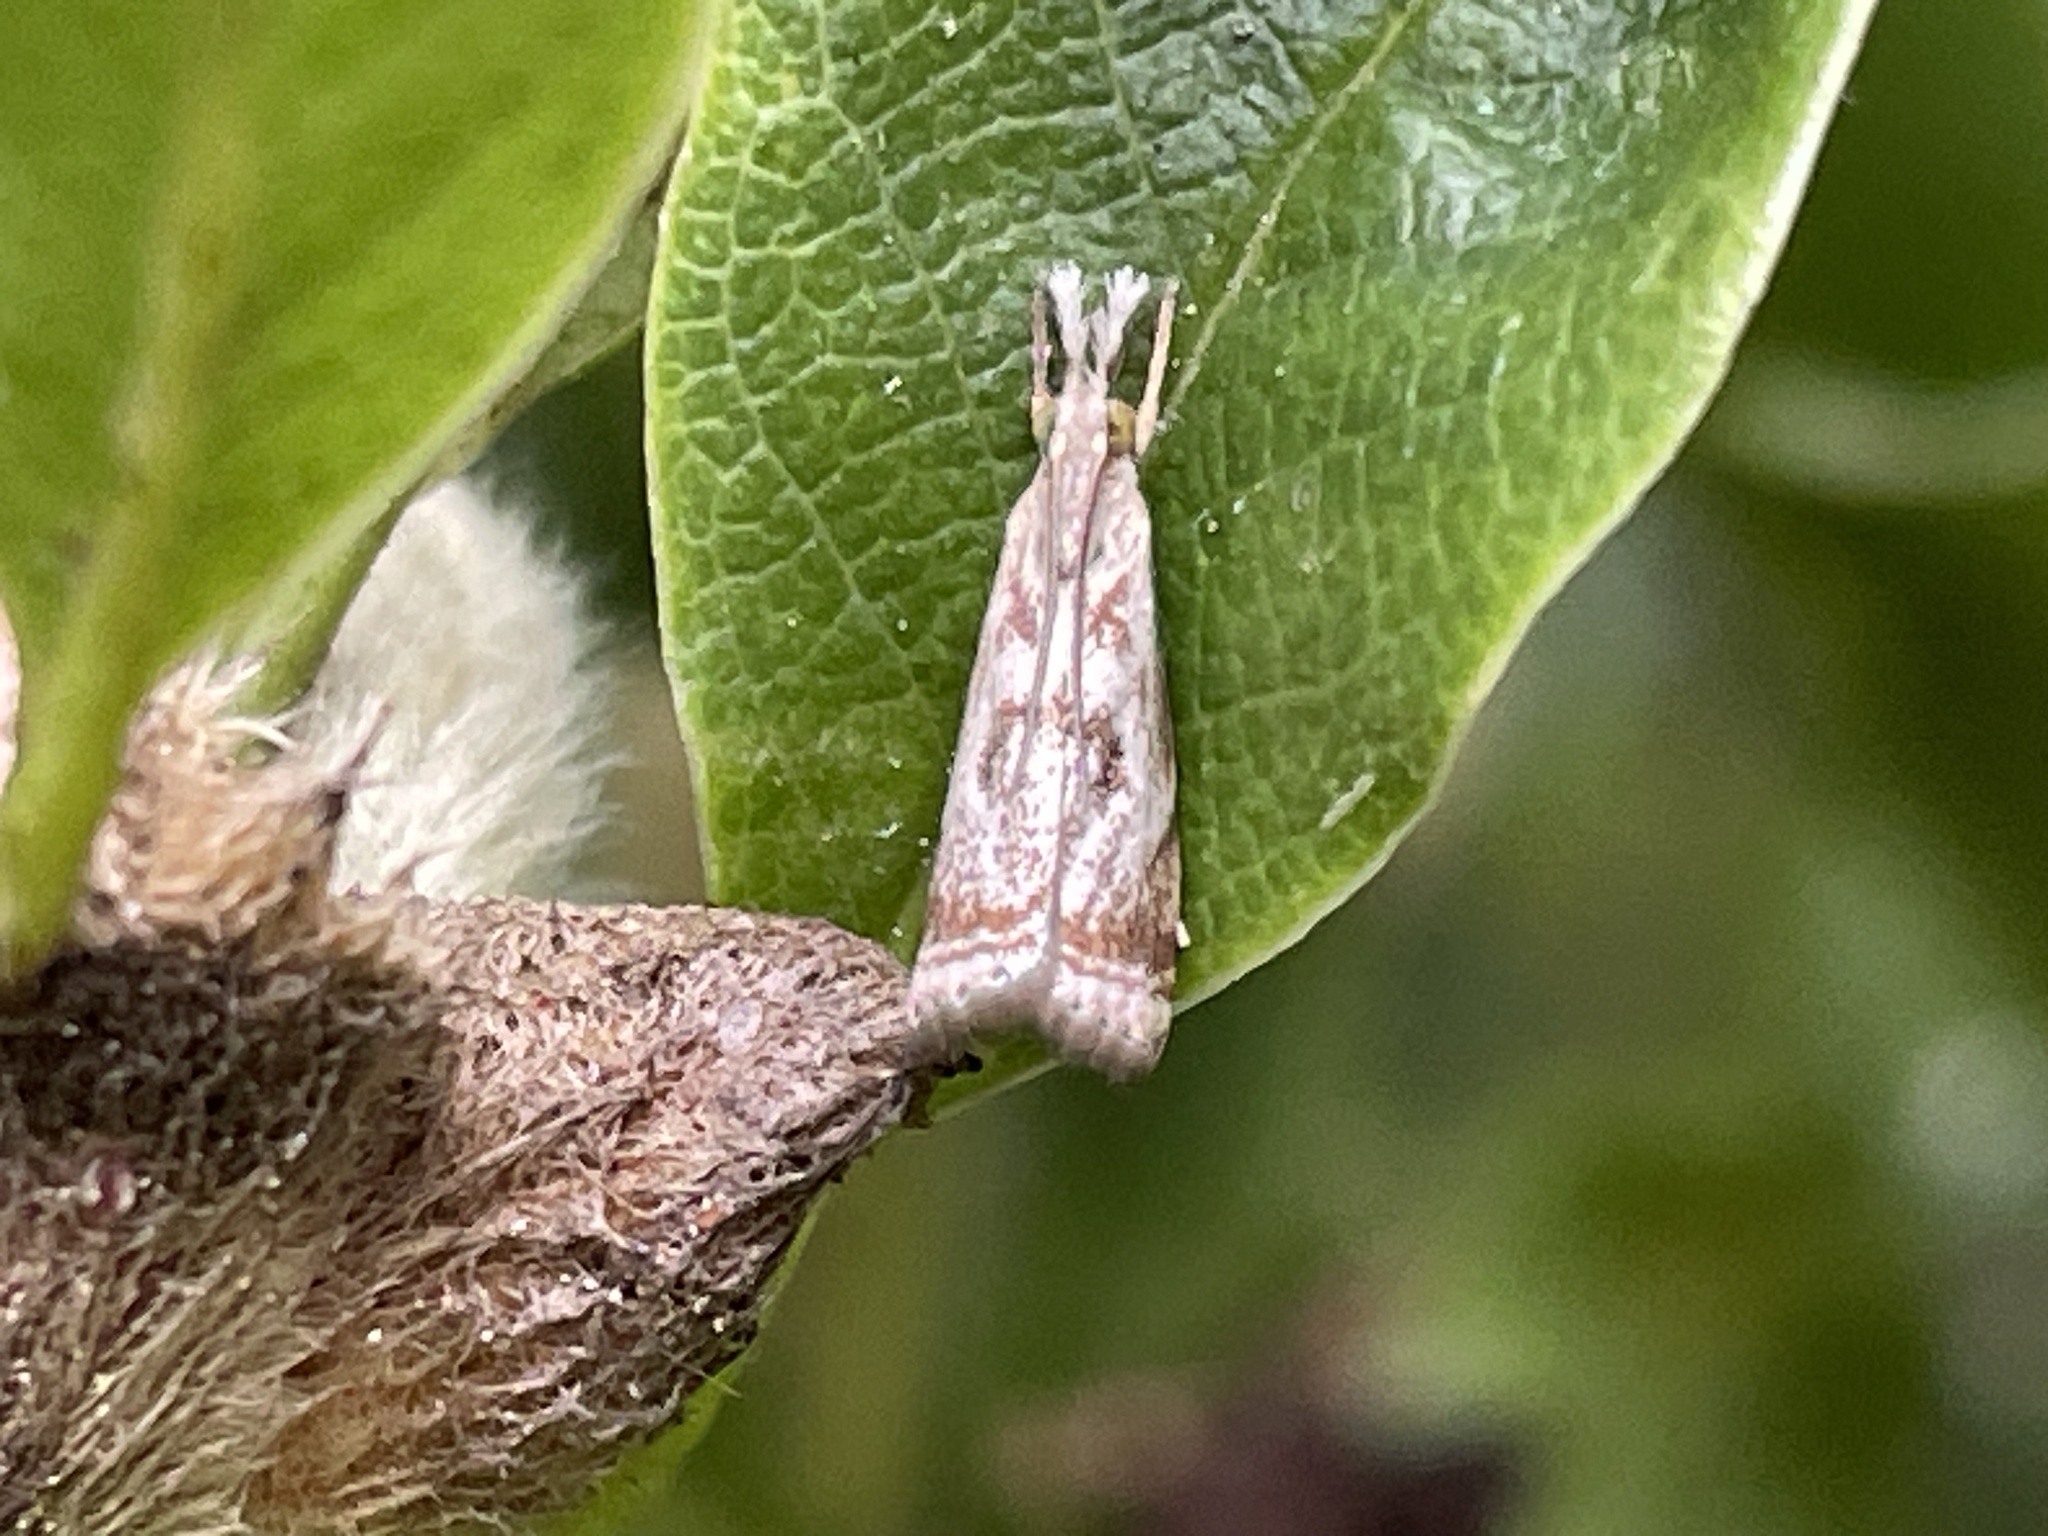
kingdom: Animalia
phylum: Arthropoda
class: Insecta
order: Lepidoptera
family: Crambidae
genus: Microcrambus
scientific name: Microcrambus elegans
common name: Elegant grass-veneer
